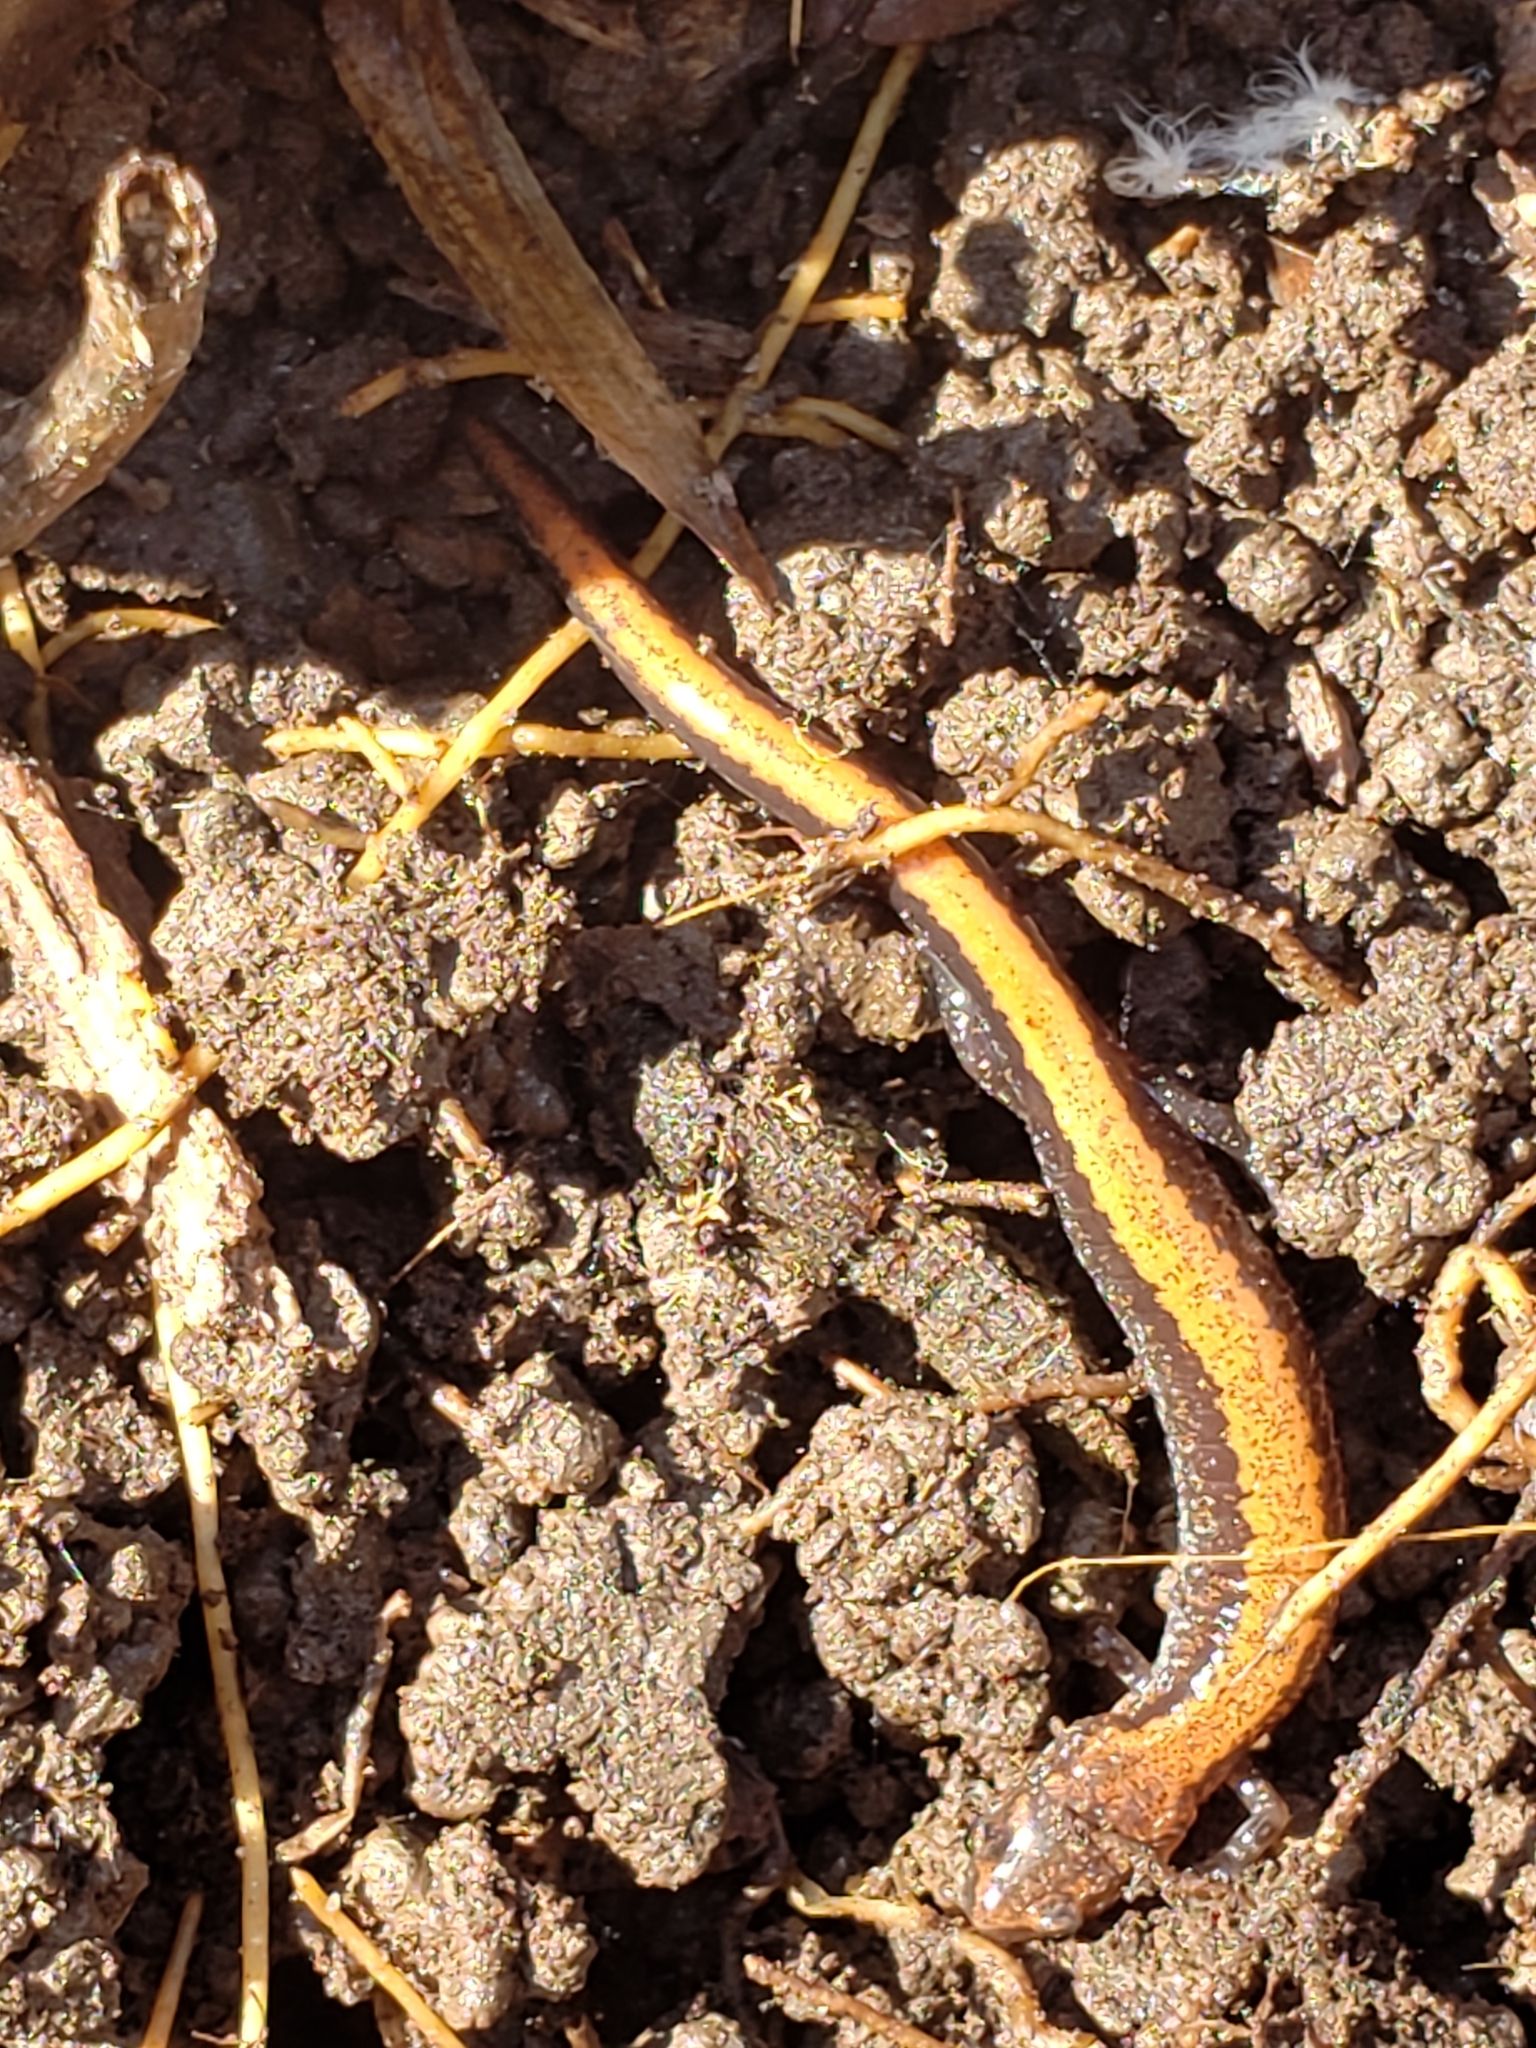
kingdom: Animalia
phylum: Chordata
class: Amphibia
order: Caudata
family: Plethodontidae
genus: Plethodon
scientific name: Plethodon cinereus
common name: Redback salamander
